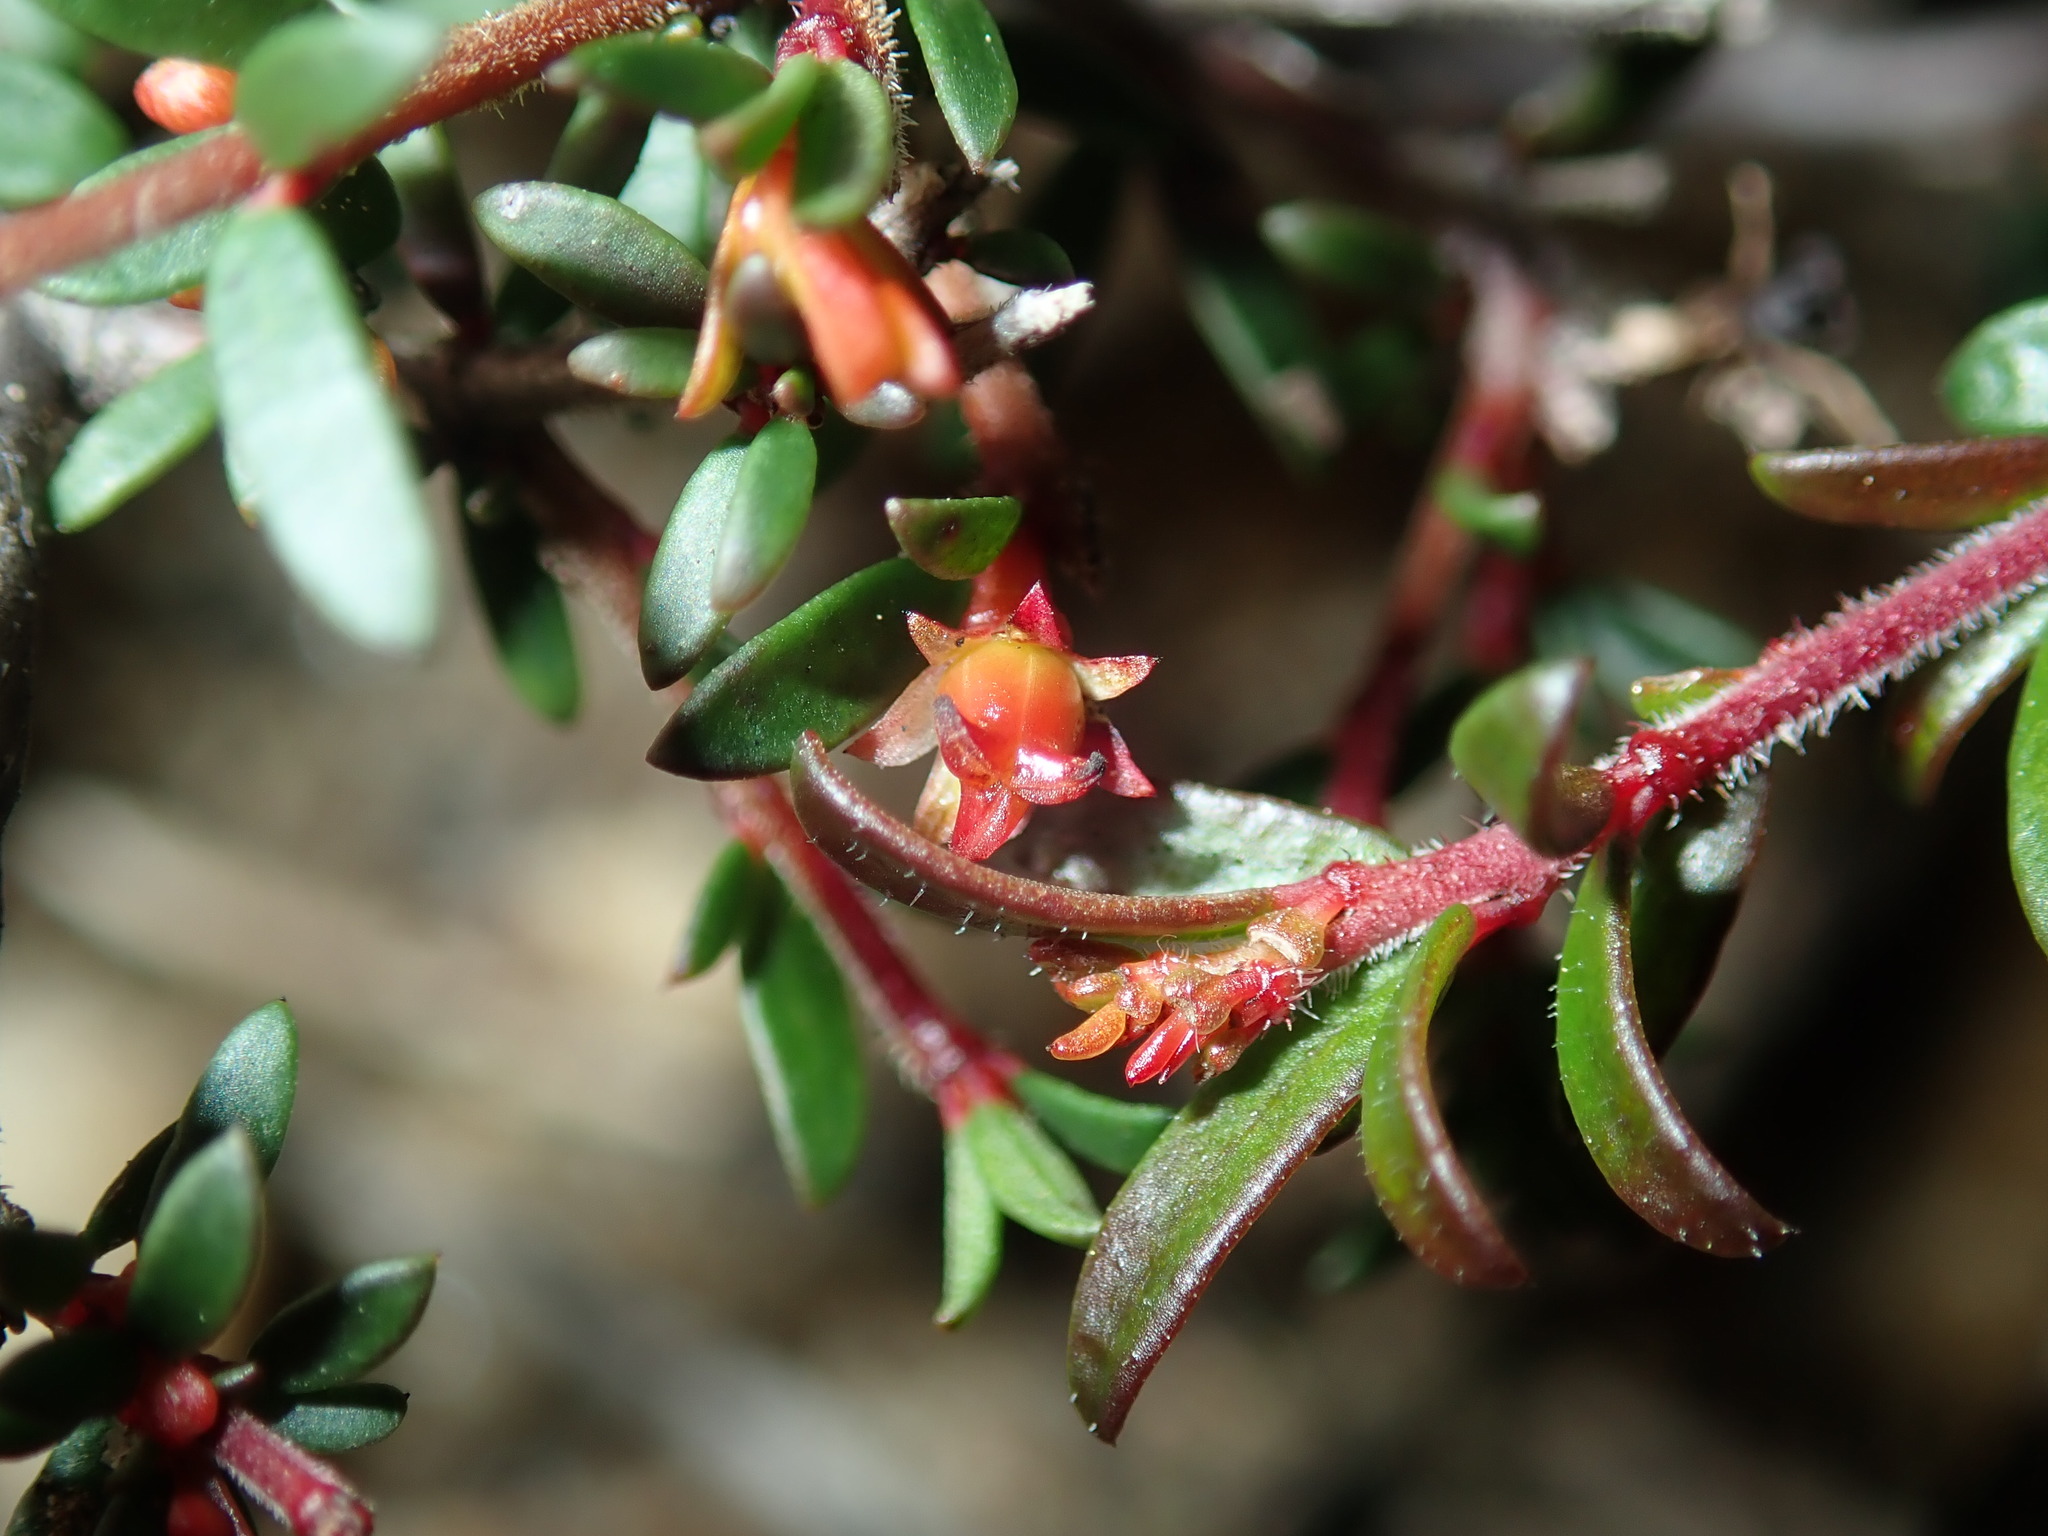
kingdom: Plantae
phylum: Tracheophyta
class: Magnoliopsida
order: Malpighiales
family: Picrodendraceae
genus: Micrantheum
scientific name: Micrantheum ericoides
